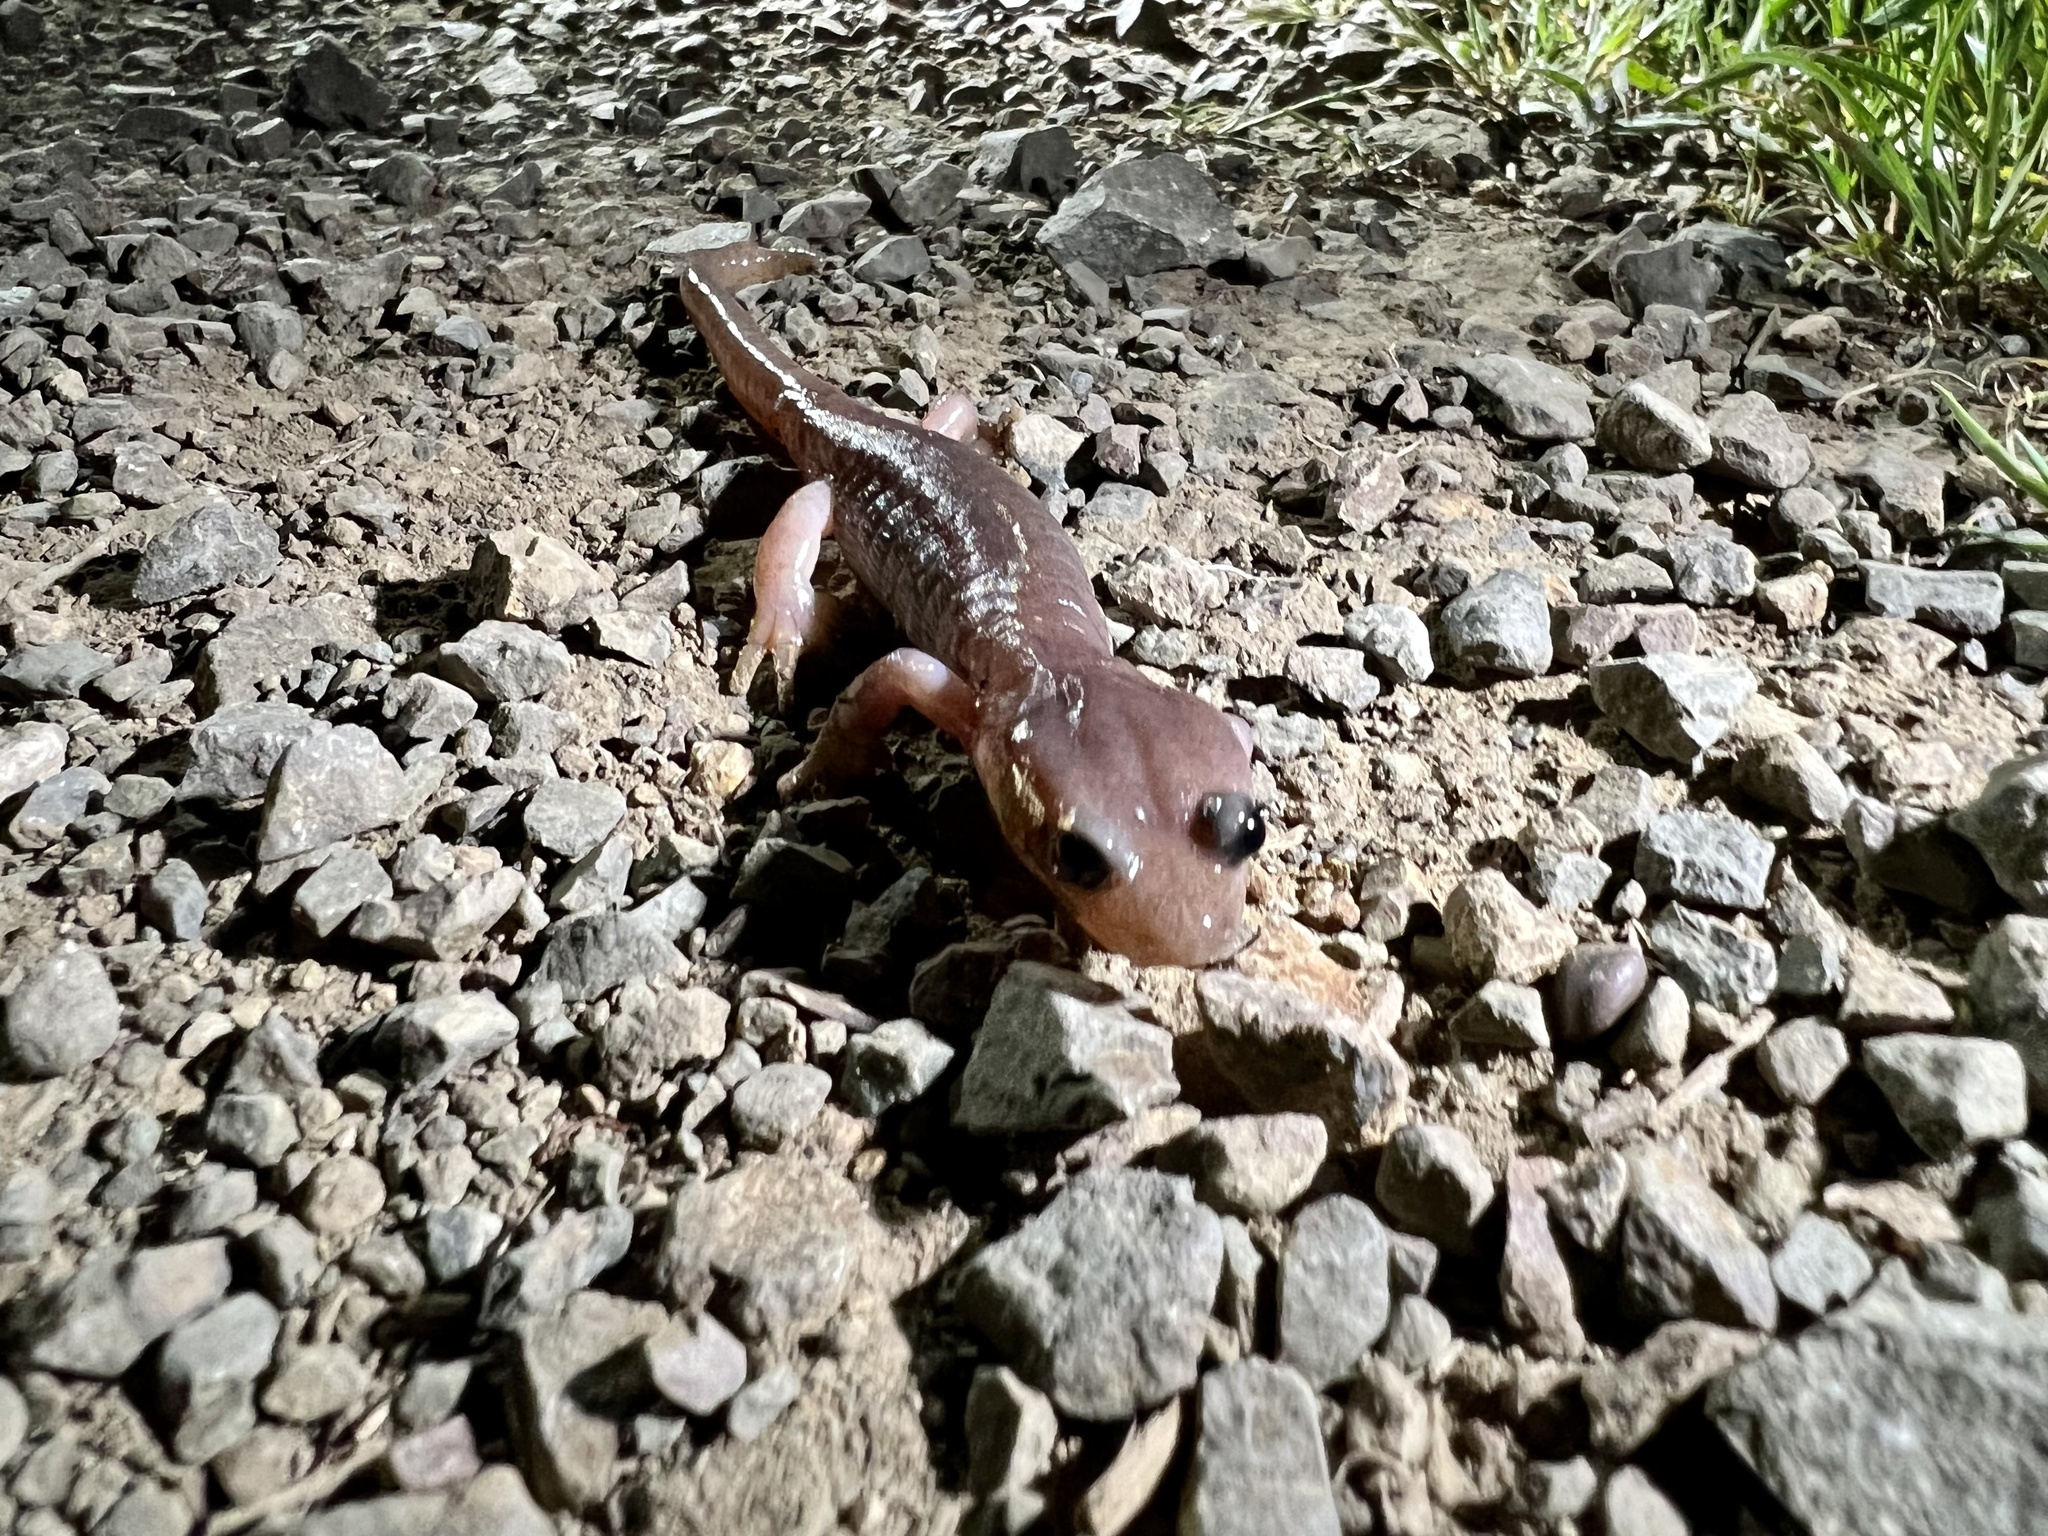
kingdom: Animalia
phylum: Chordata
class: Amphibia
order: Caudata
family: Plethodontidae
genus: Aneides
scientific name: Aneides lugubris
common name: Arboreal salamander
